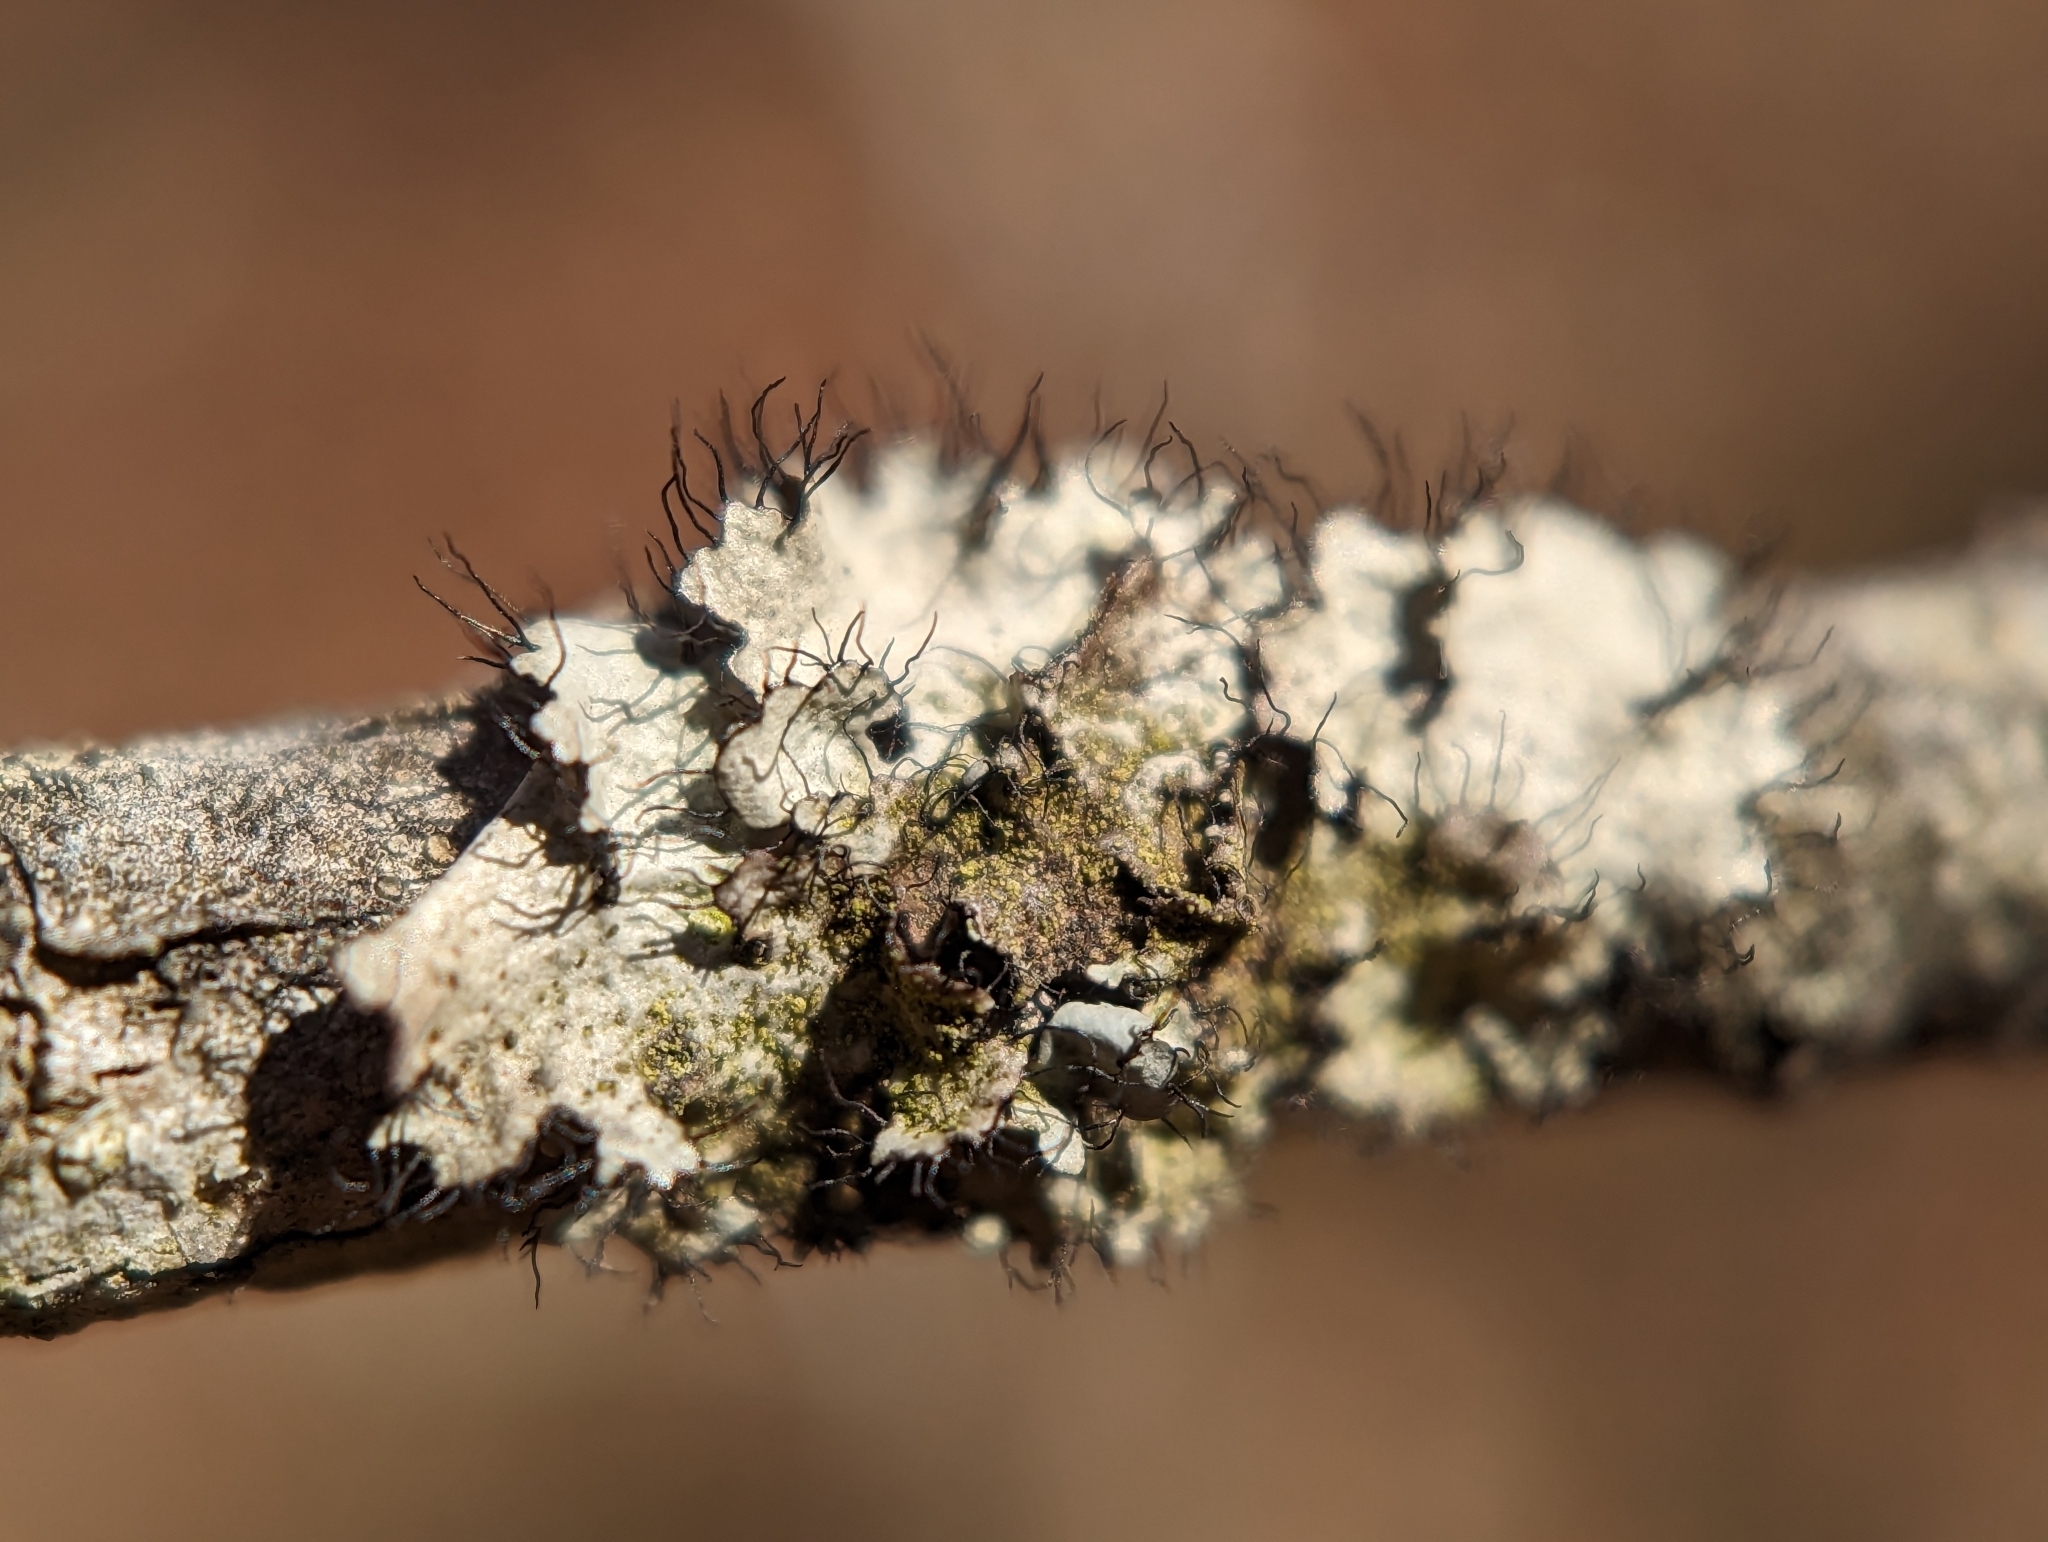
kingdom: Fungi
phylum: Ascomycota
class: Lecanoromycetes
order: Lecanorales
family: Parmeliaceae
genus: Parmotrema
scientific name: Parmotrema hypotropum
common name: Powdered ruffle lichen
